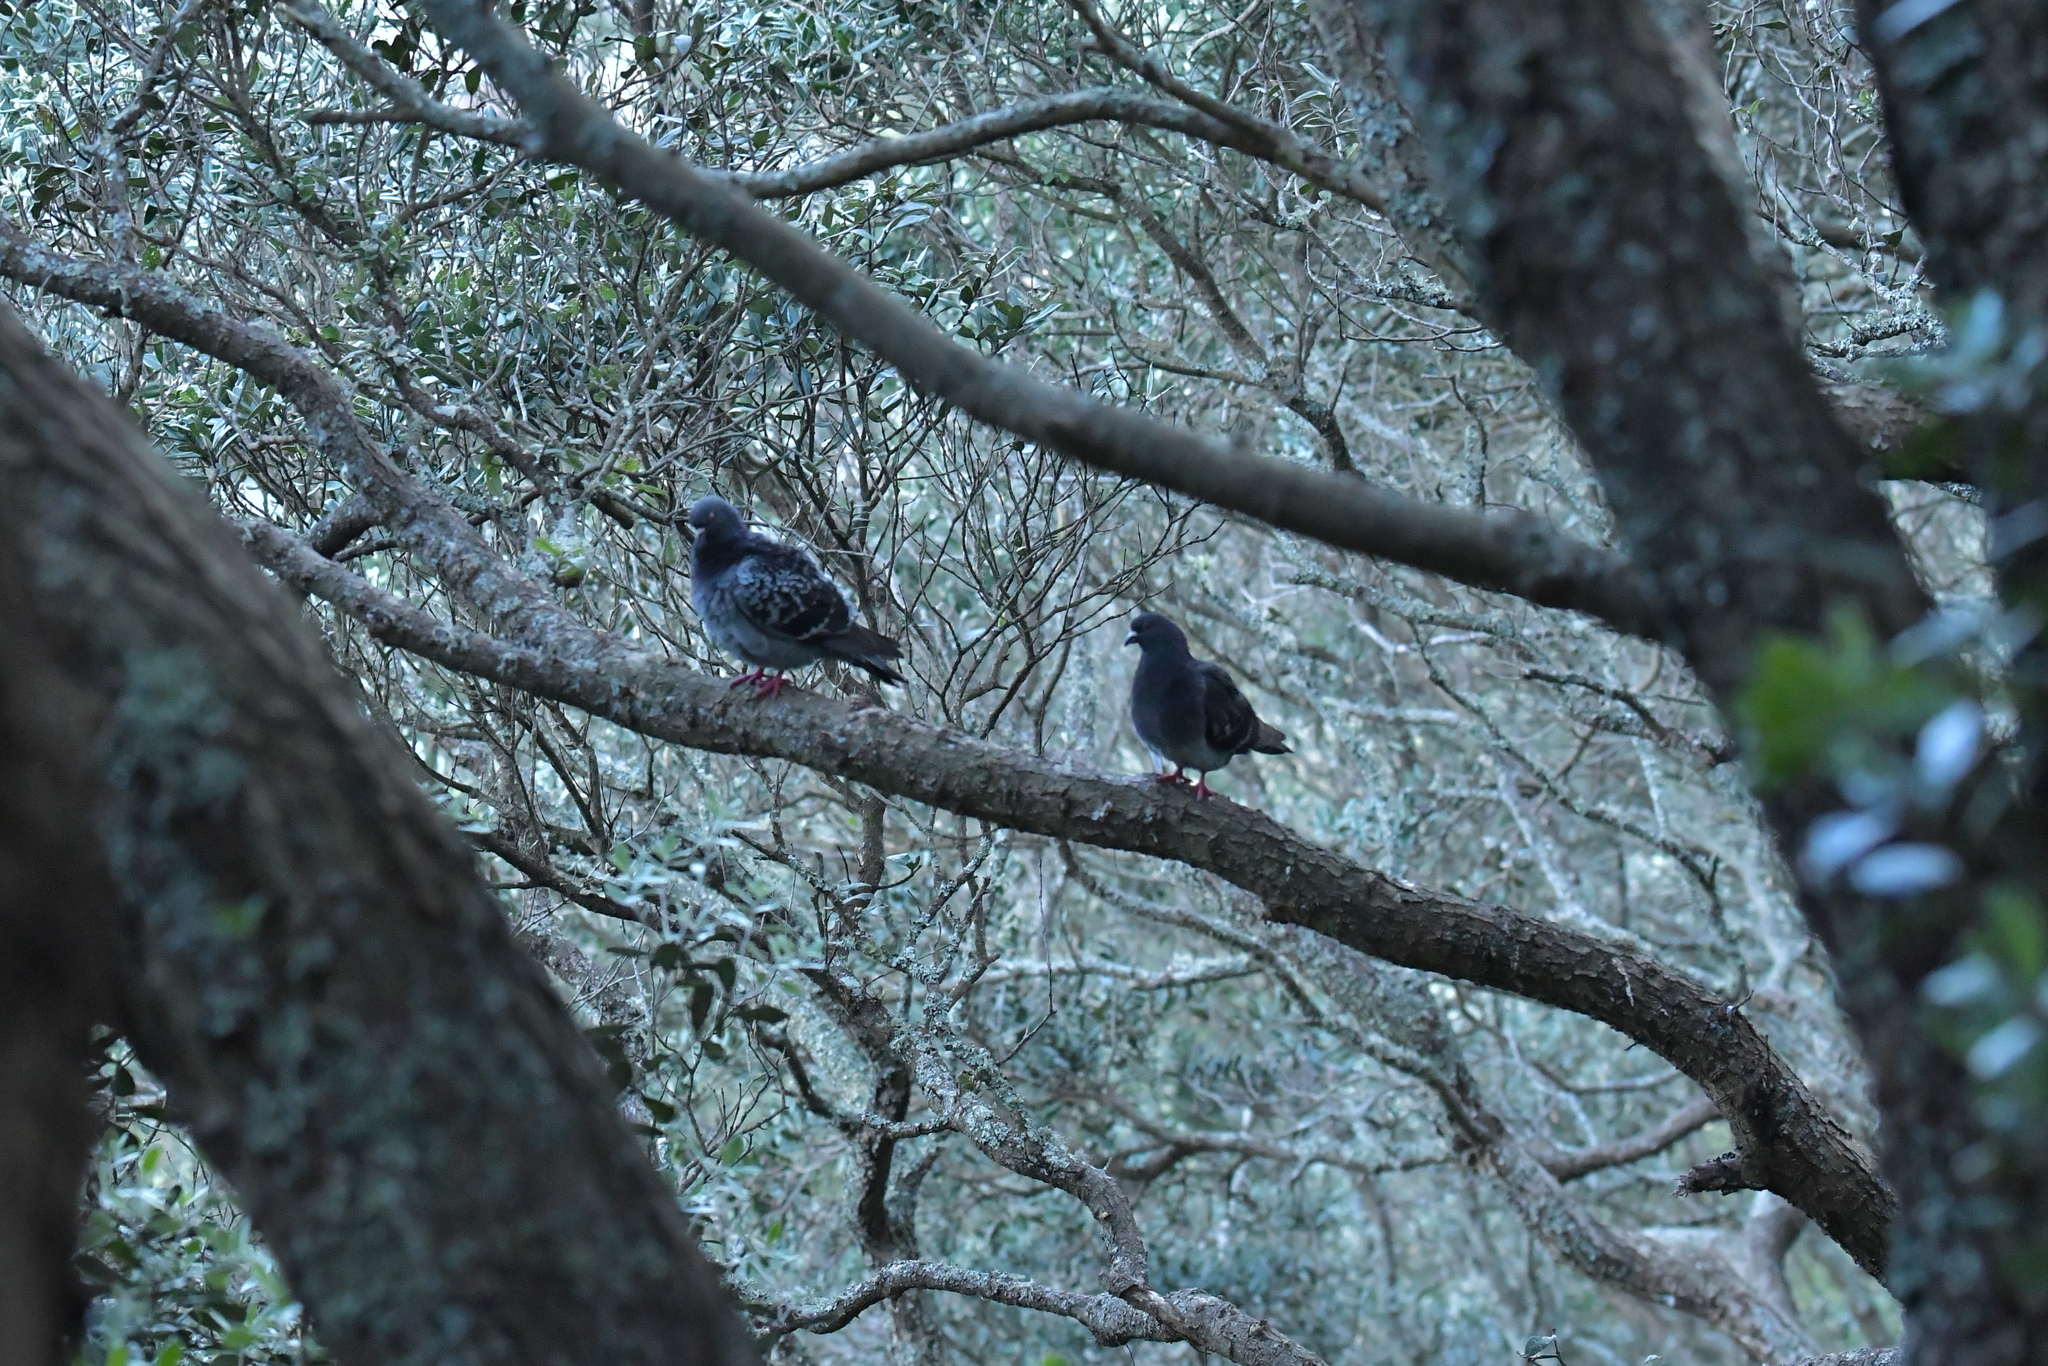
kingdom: Animalia
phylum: Chordata
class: Aves
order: Columbiformes
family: Columbidae
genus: Columba
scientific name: Columba livia
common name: Rock pigeon
